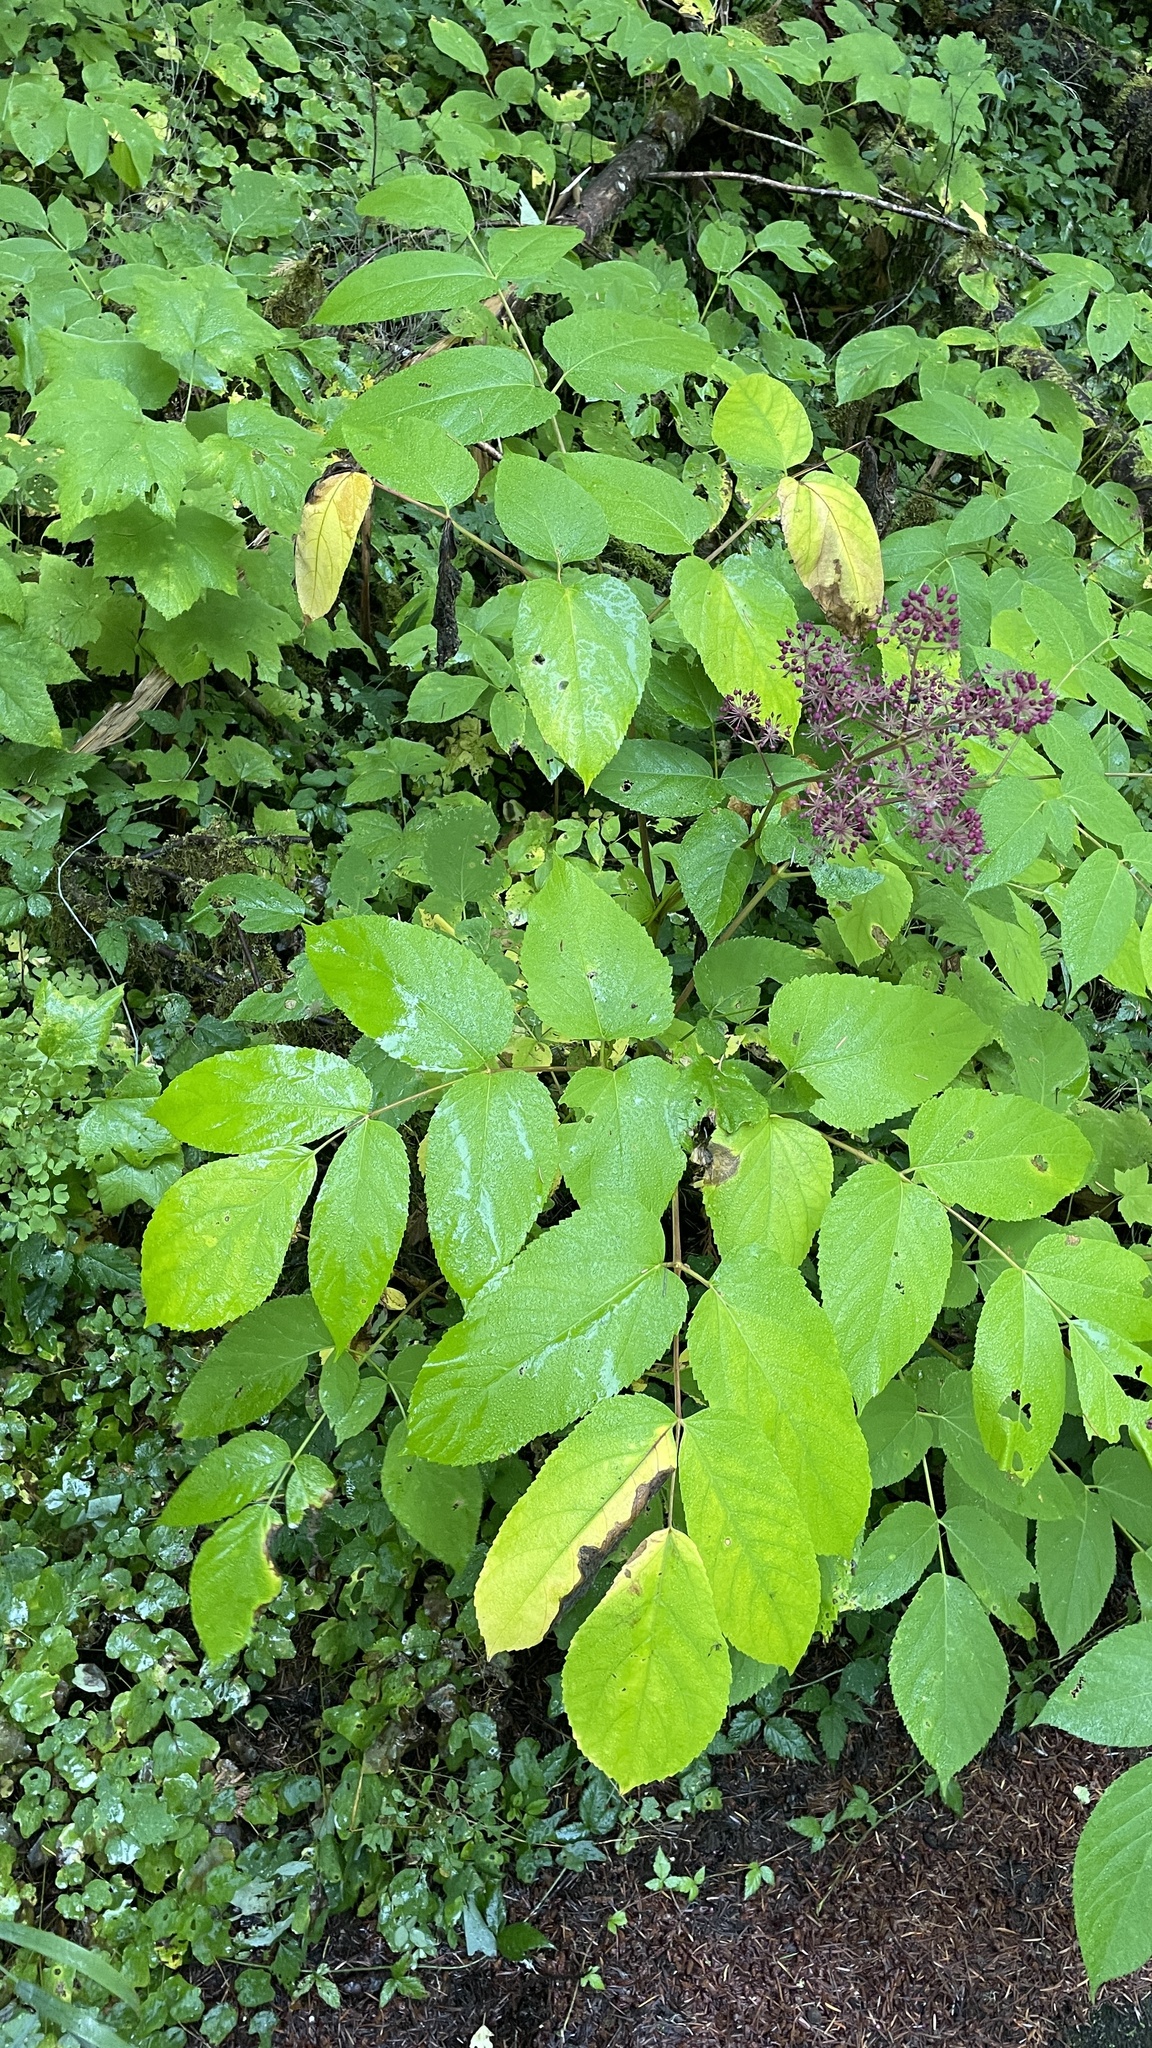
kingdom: Plantae
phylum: Tracheophyta
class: Magnoliopsida
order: Apiales
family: Araliaceae
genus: Aralia
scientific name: Aralia californica
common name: California-ginseng
